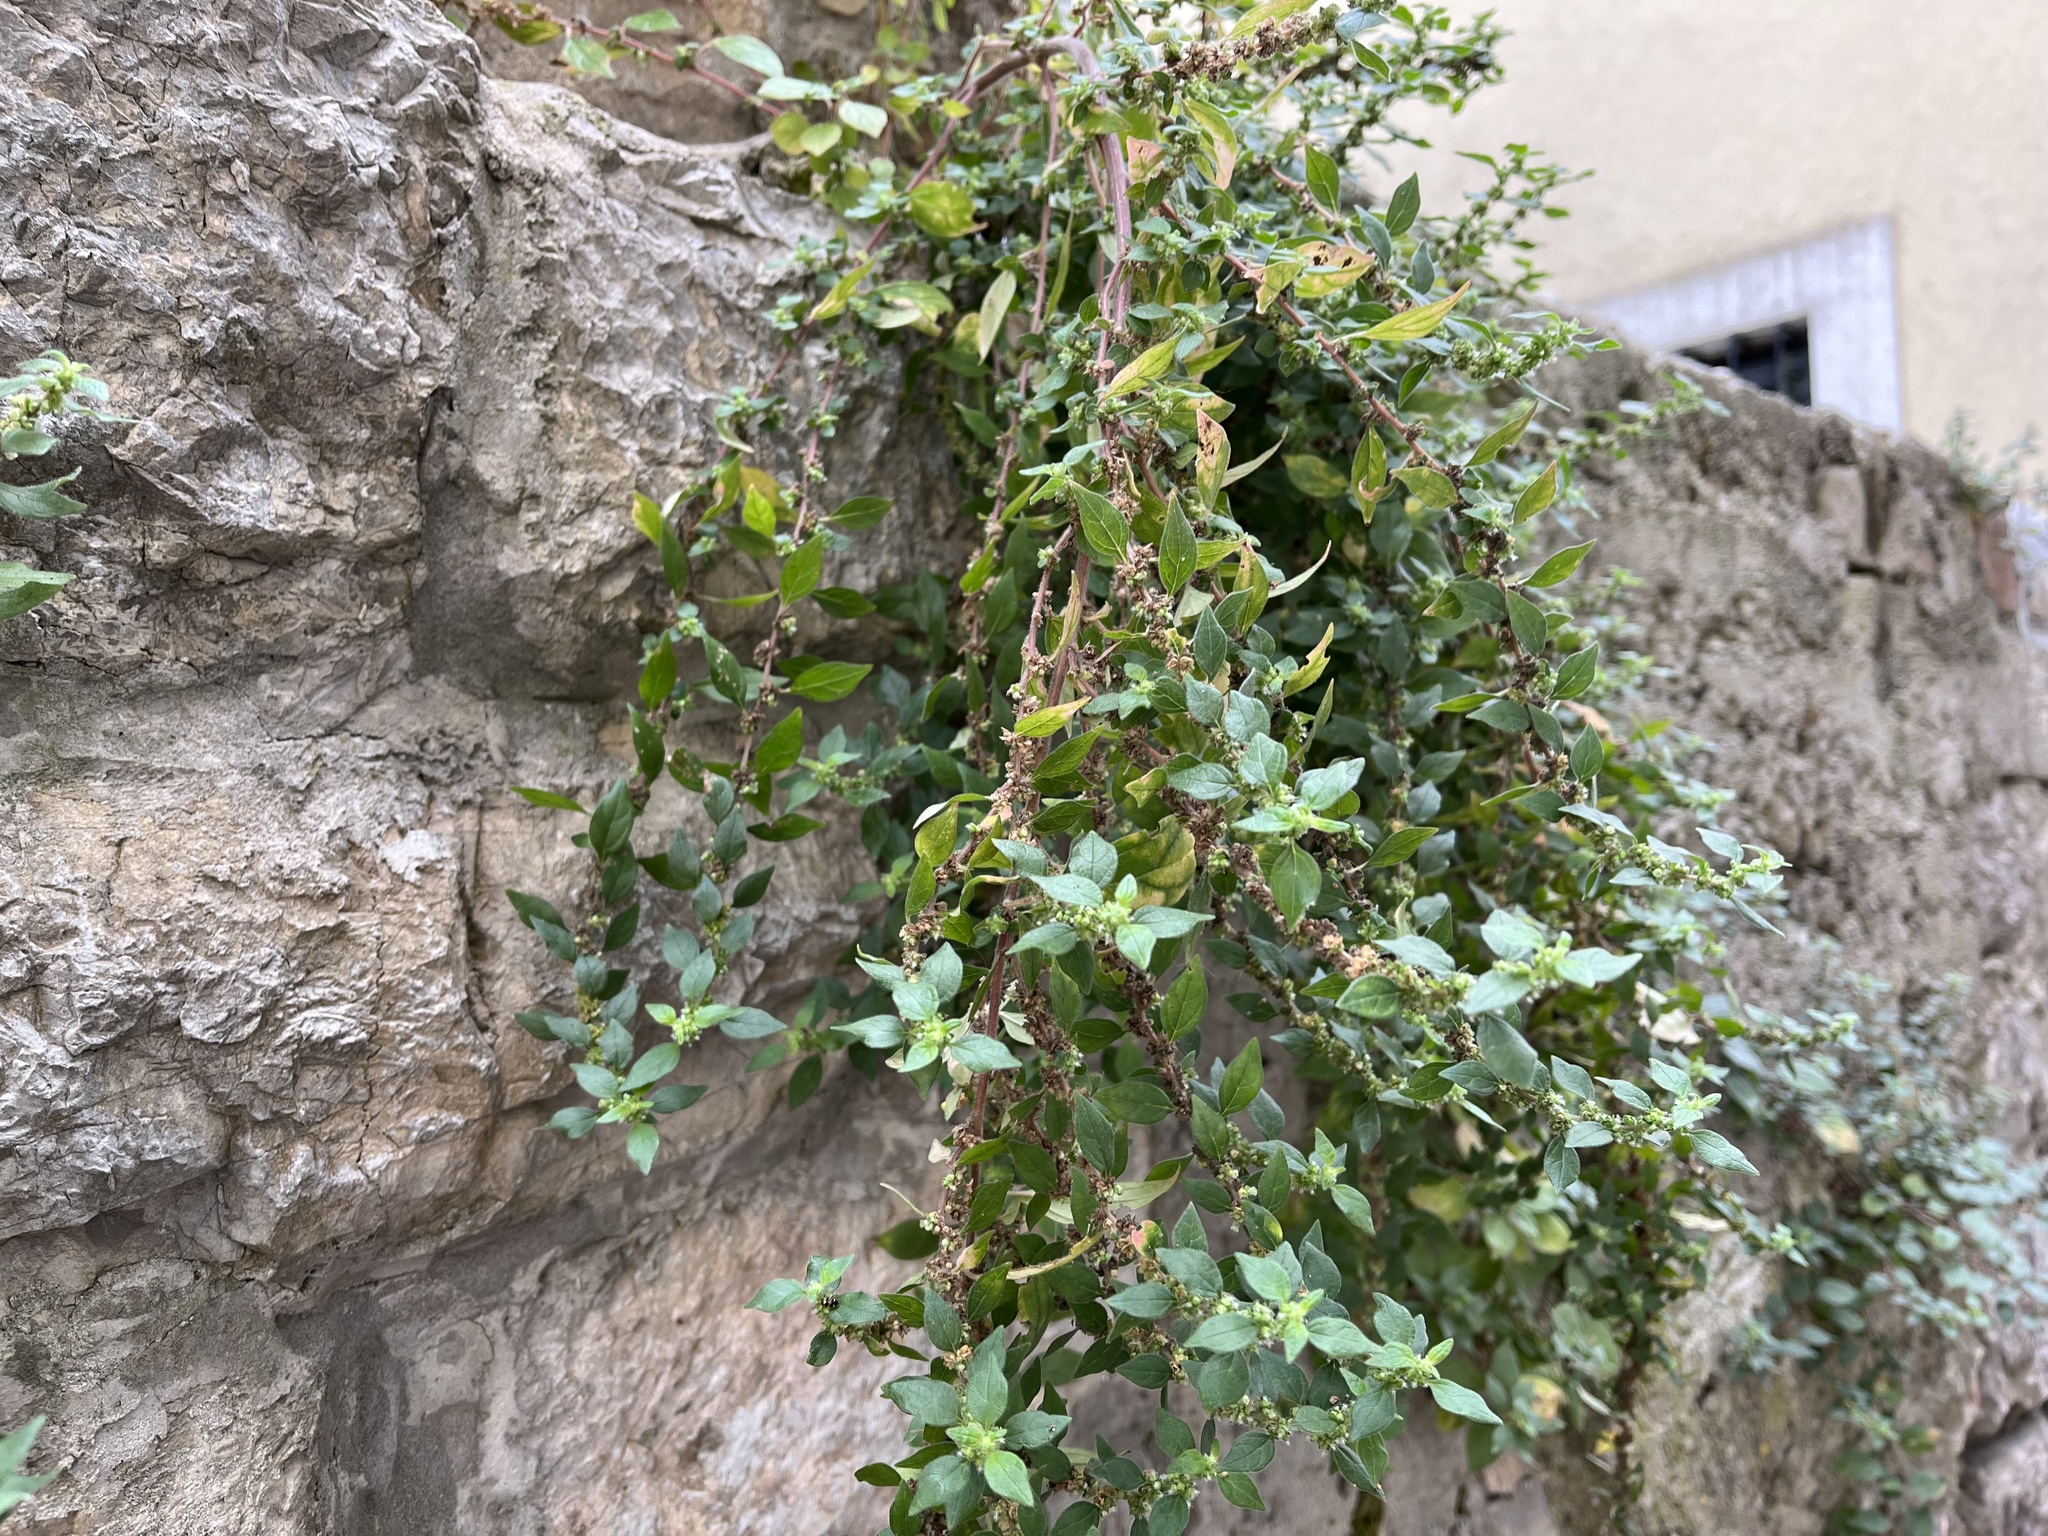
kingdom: Plantae
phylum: Tracheophyta
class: Magnoliopsida
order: Rosales
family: Urticaceae
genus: Parietaria
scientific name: Parietaria judaica
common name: Pellitory-of-the-wall
